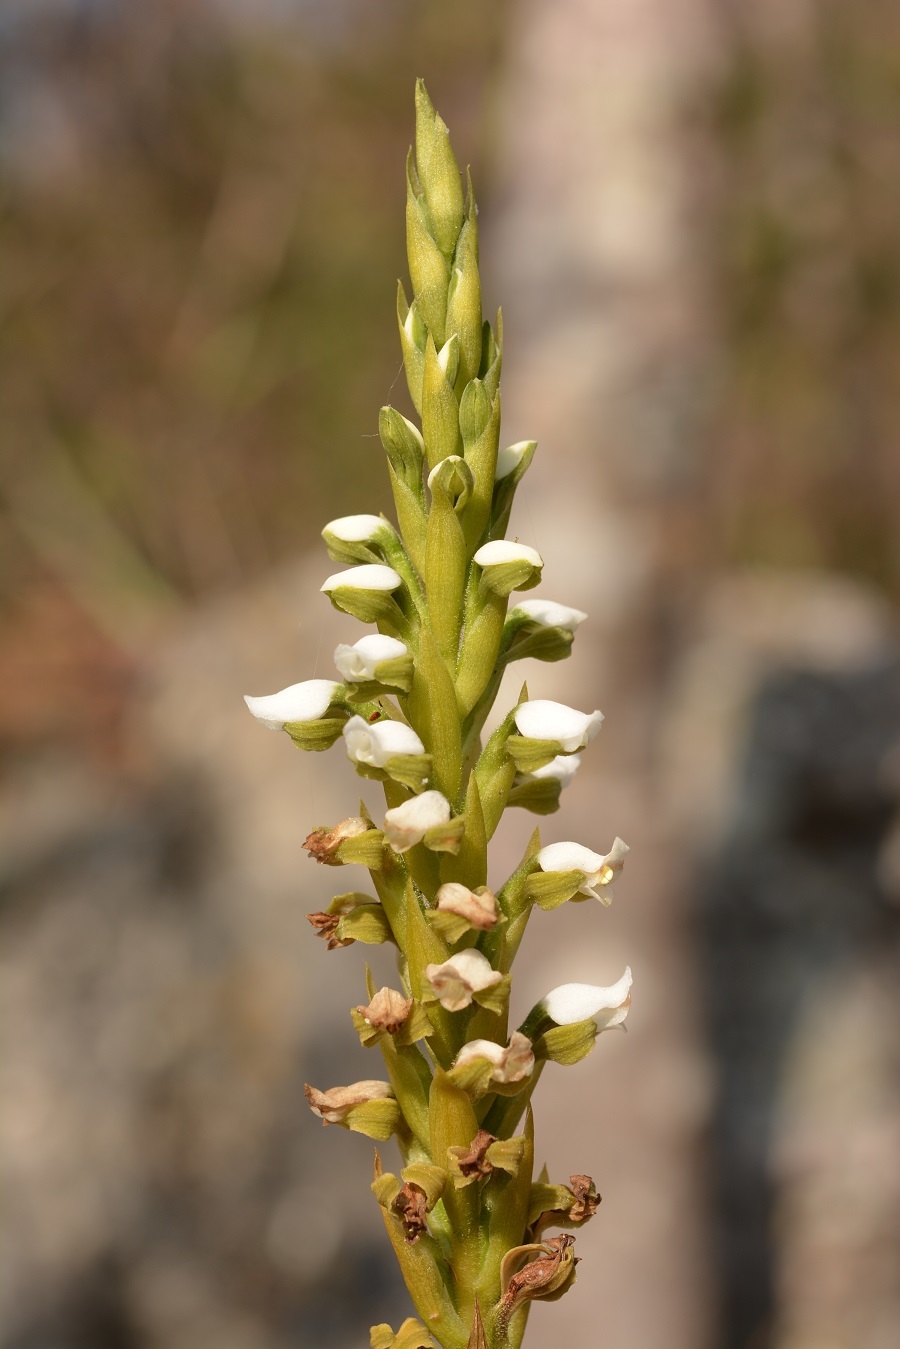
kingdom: Plantae
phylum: Tracheophyta
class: Liliopsida
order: Asparagales
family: Orchidaceae
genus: Aulosepalum
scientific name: Aulosepalum hemichrea
